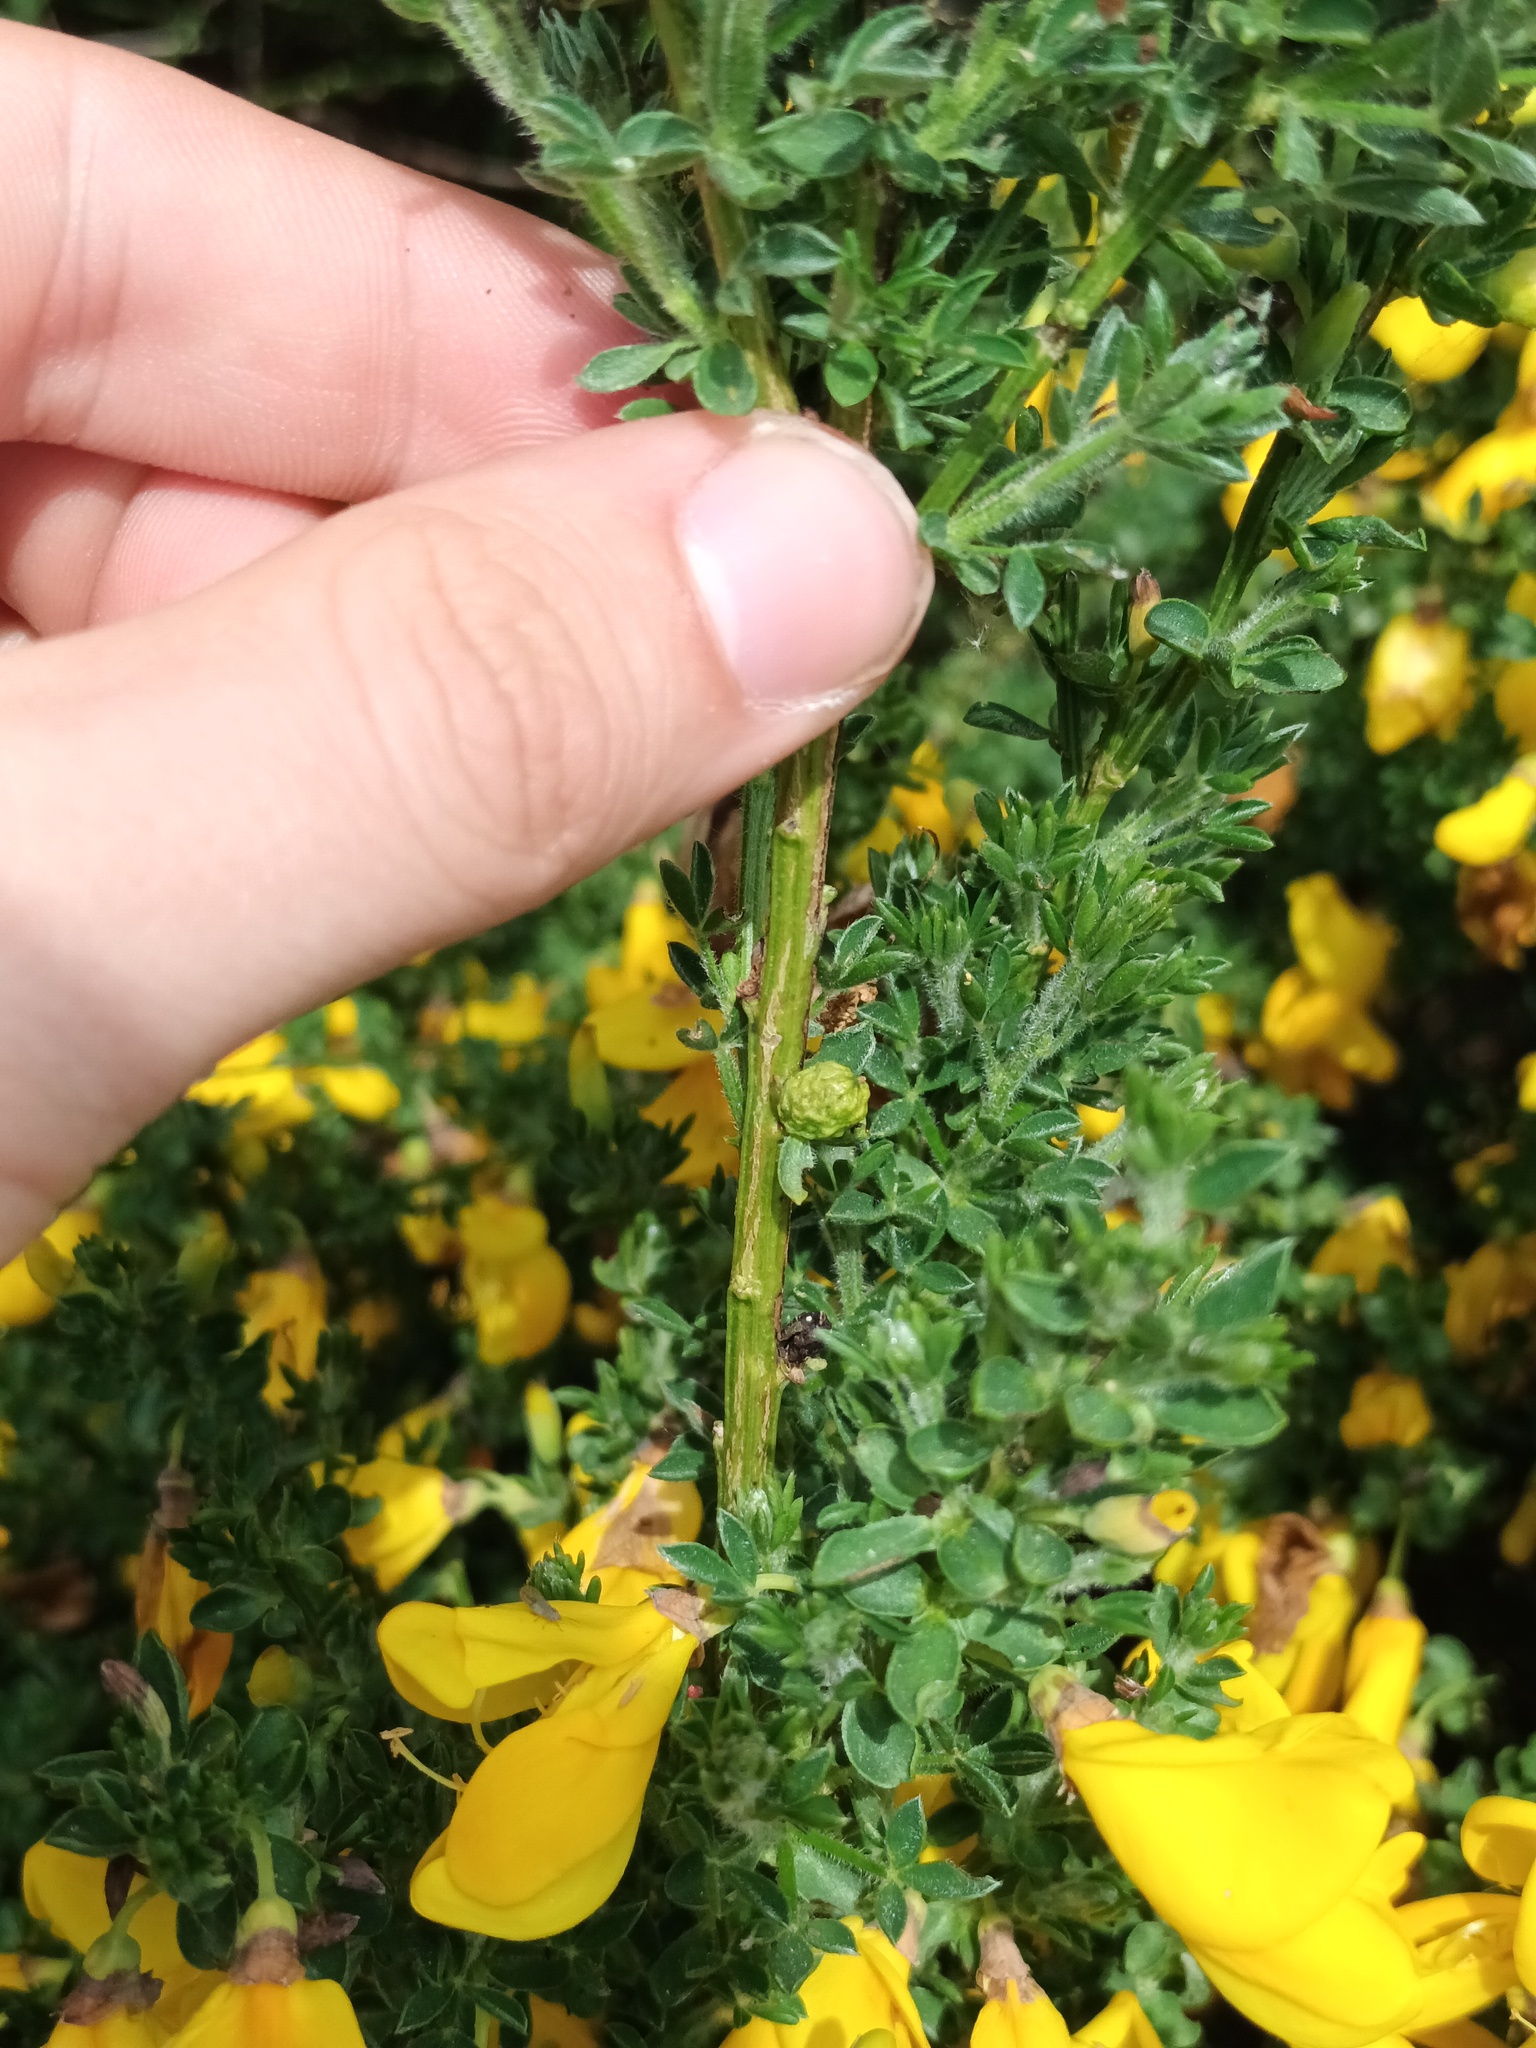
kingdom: Plantae
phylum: Tracheophyta
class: Magnoliopsida
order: Fabales
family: Fabaceae
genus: Cytisus
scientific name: Cytisus scoparius
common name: Scotch broom
